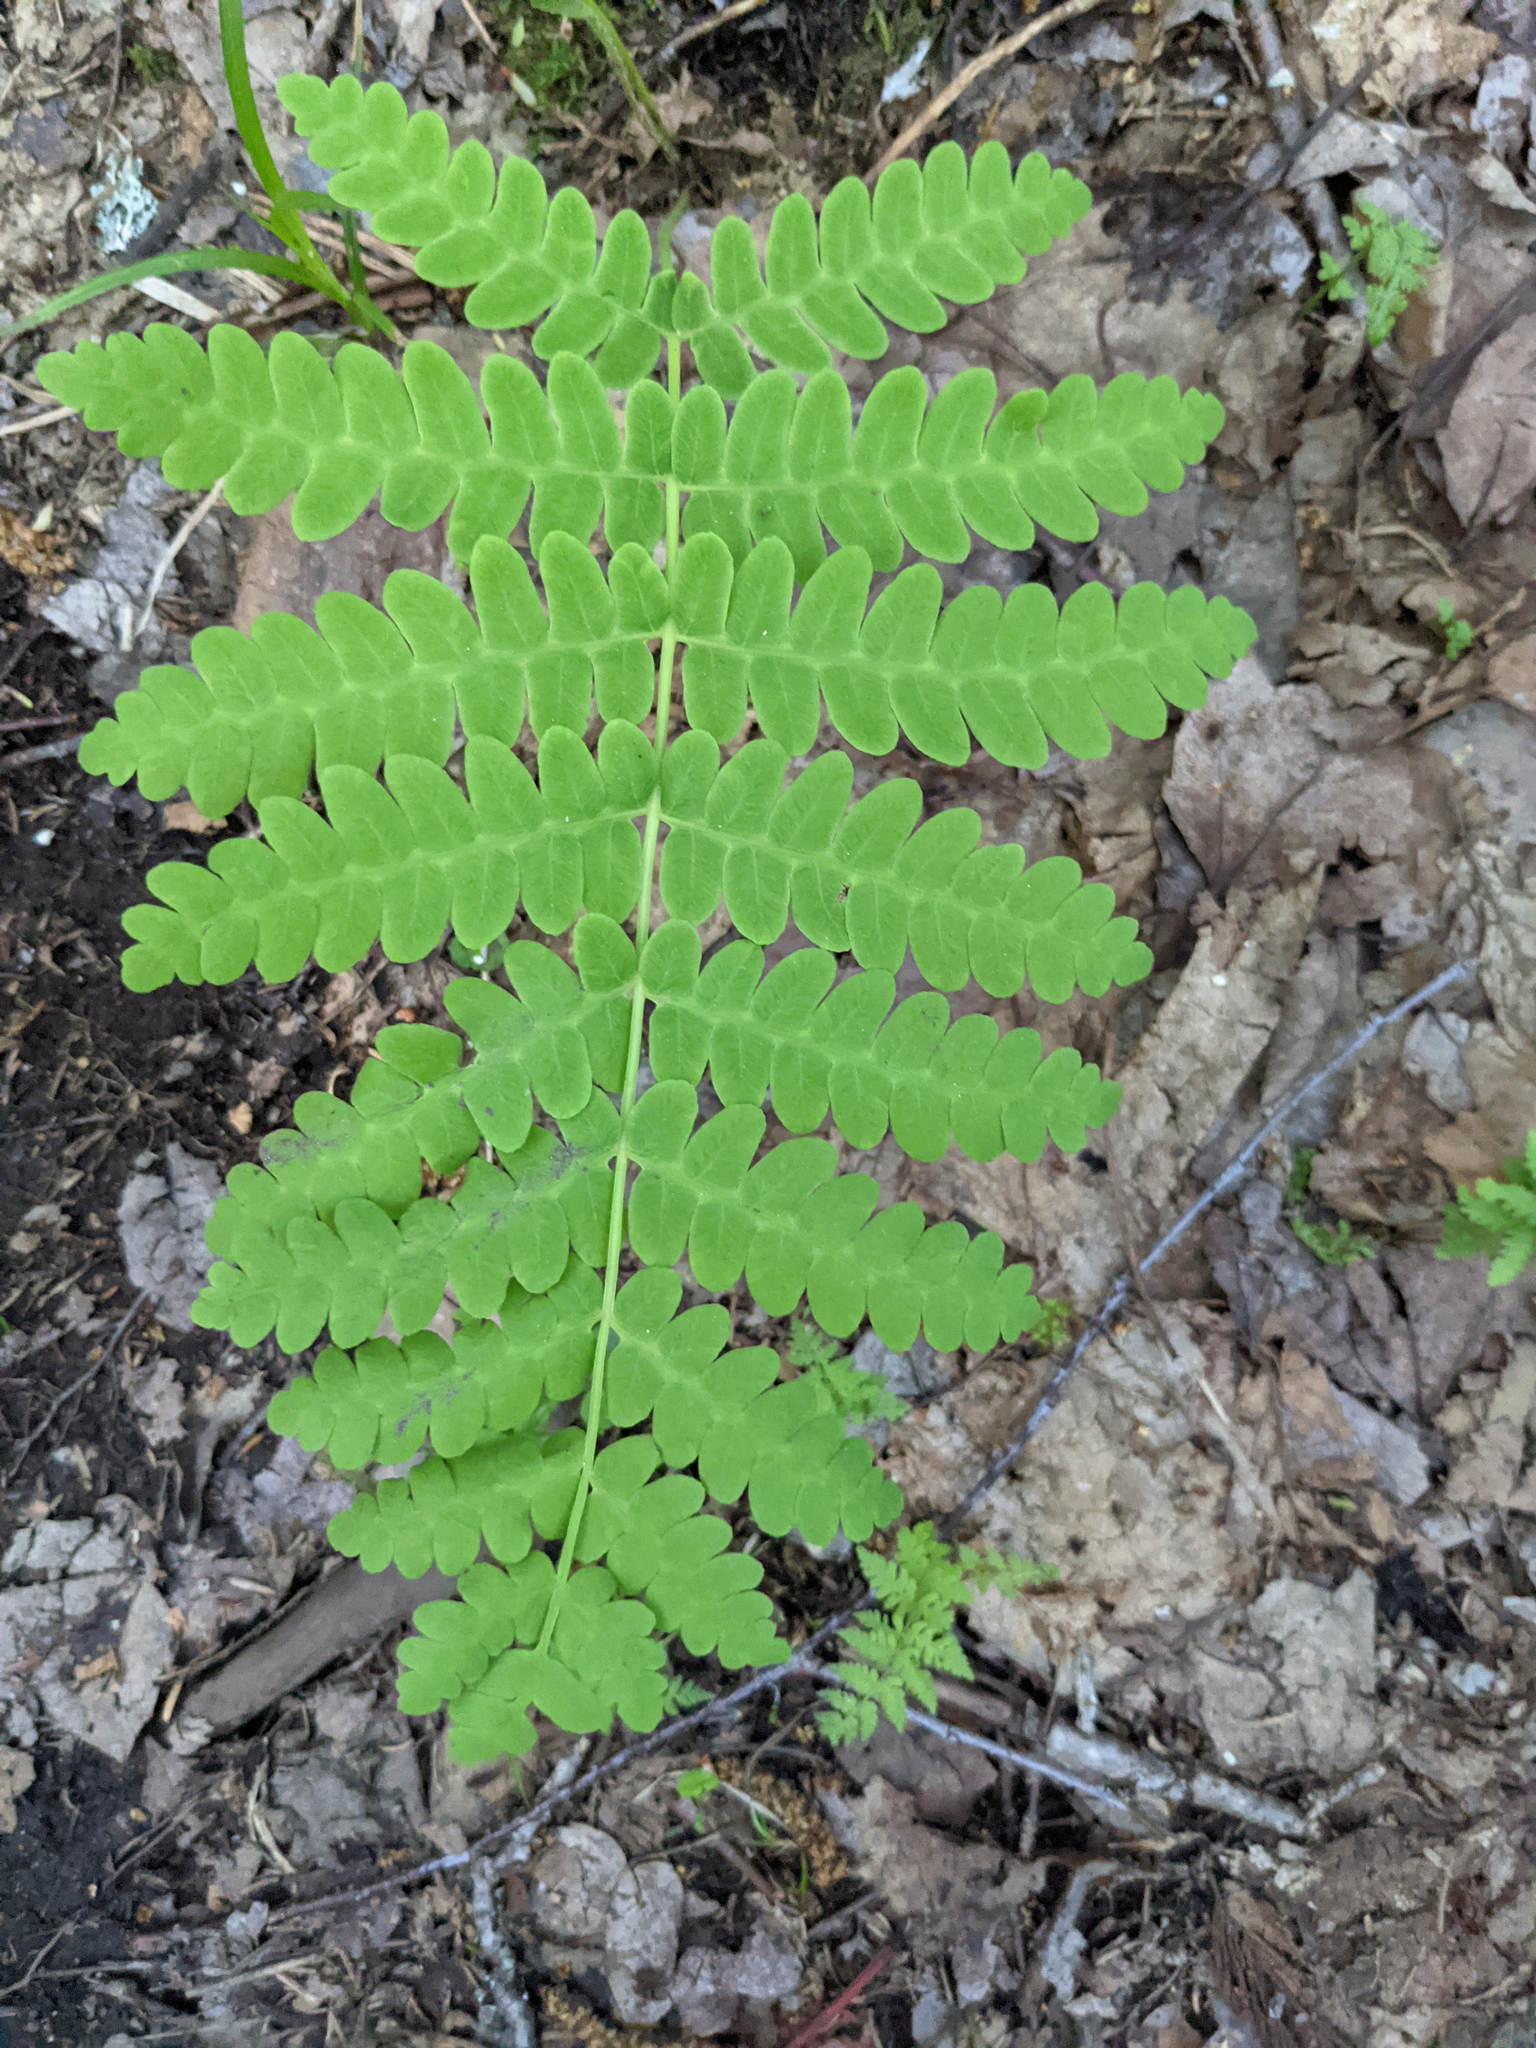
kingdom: Plantae
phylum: Tracheophyta
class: Polypodiopsida
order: Osmundales
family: Osmundaceae
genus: Claytosmunda
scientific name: Claytosmunda claytoniana
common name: Clayton's fern
